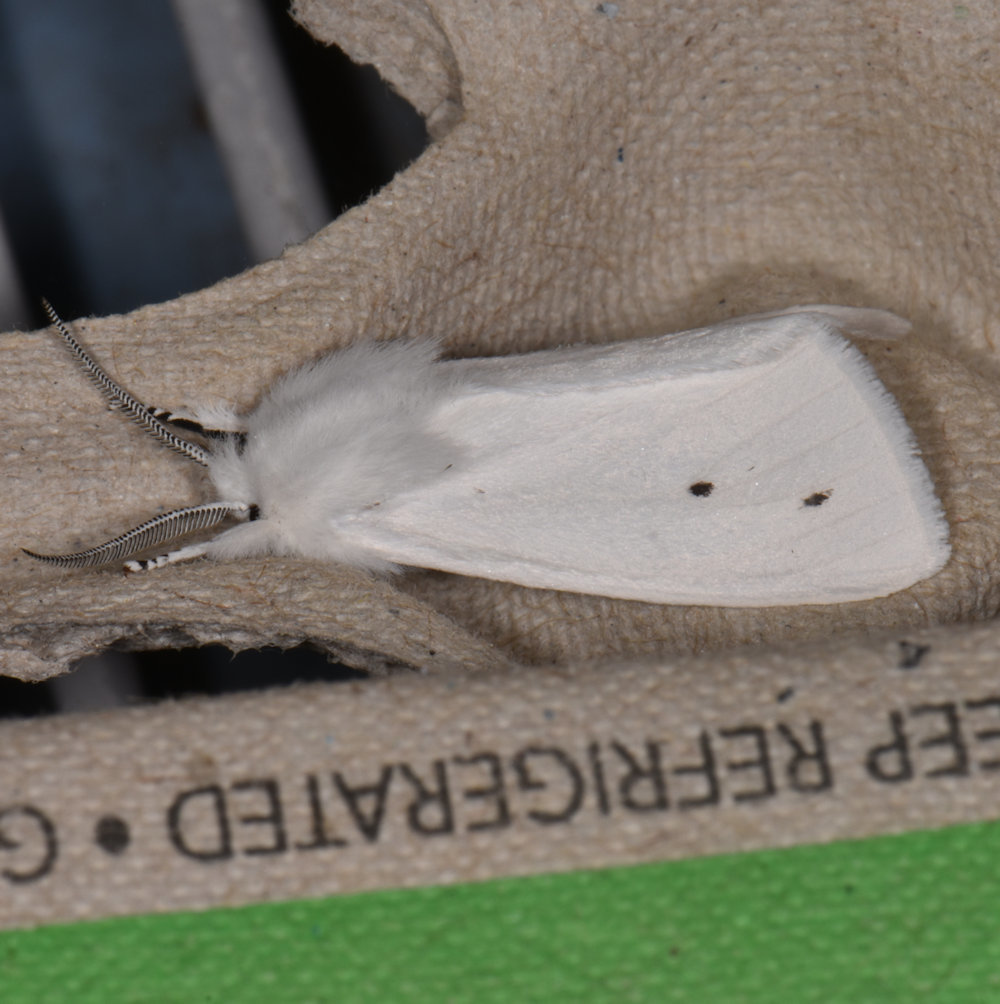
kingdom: Animalia
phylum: Arthropoda
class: Insecta
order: Lepidoptera
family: Erebidae
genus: Spilosoma
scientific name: Spilosoma virginica
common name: Virginia tiger moth
